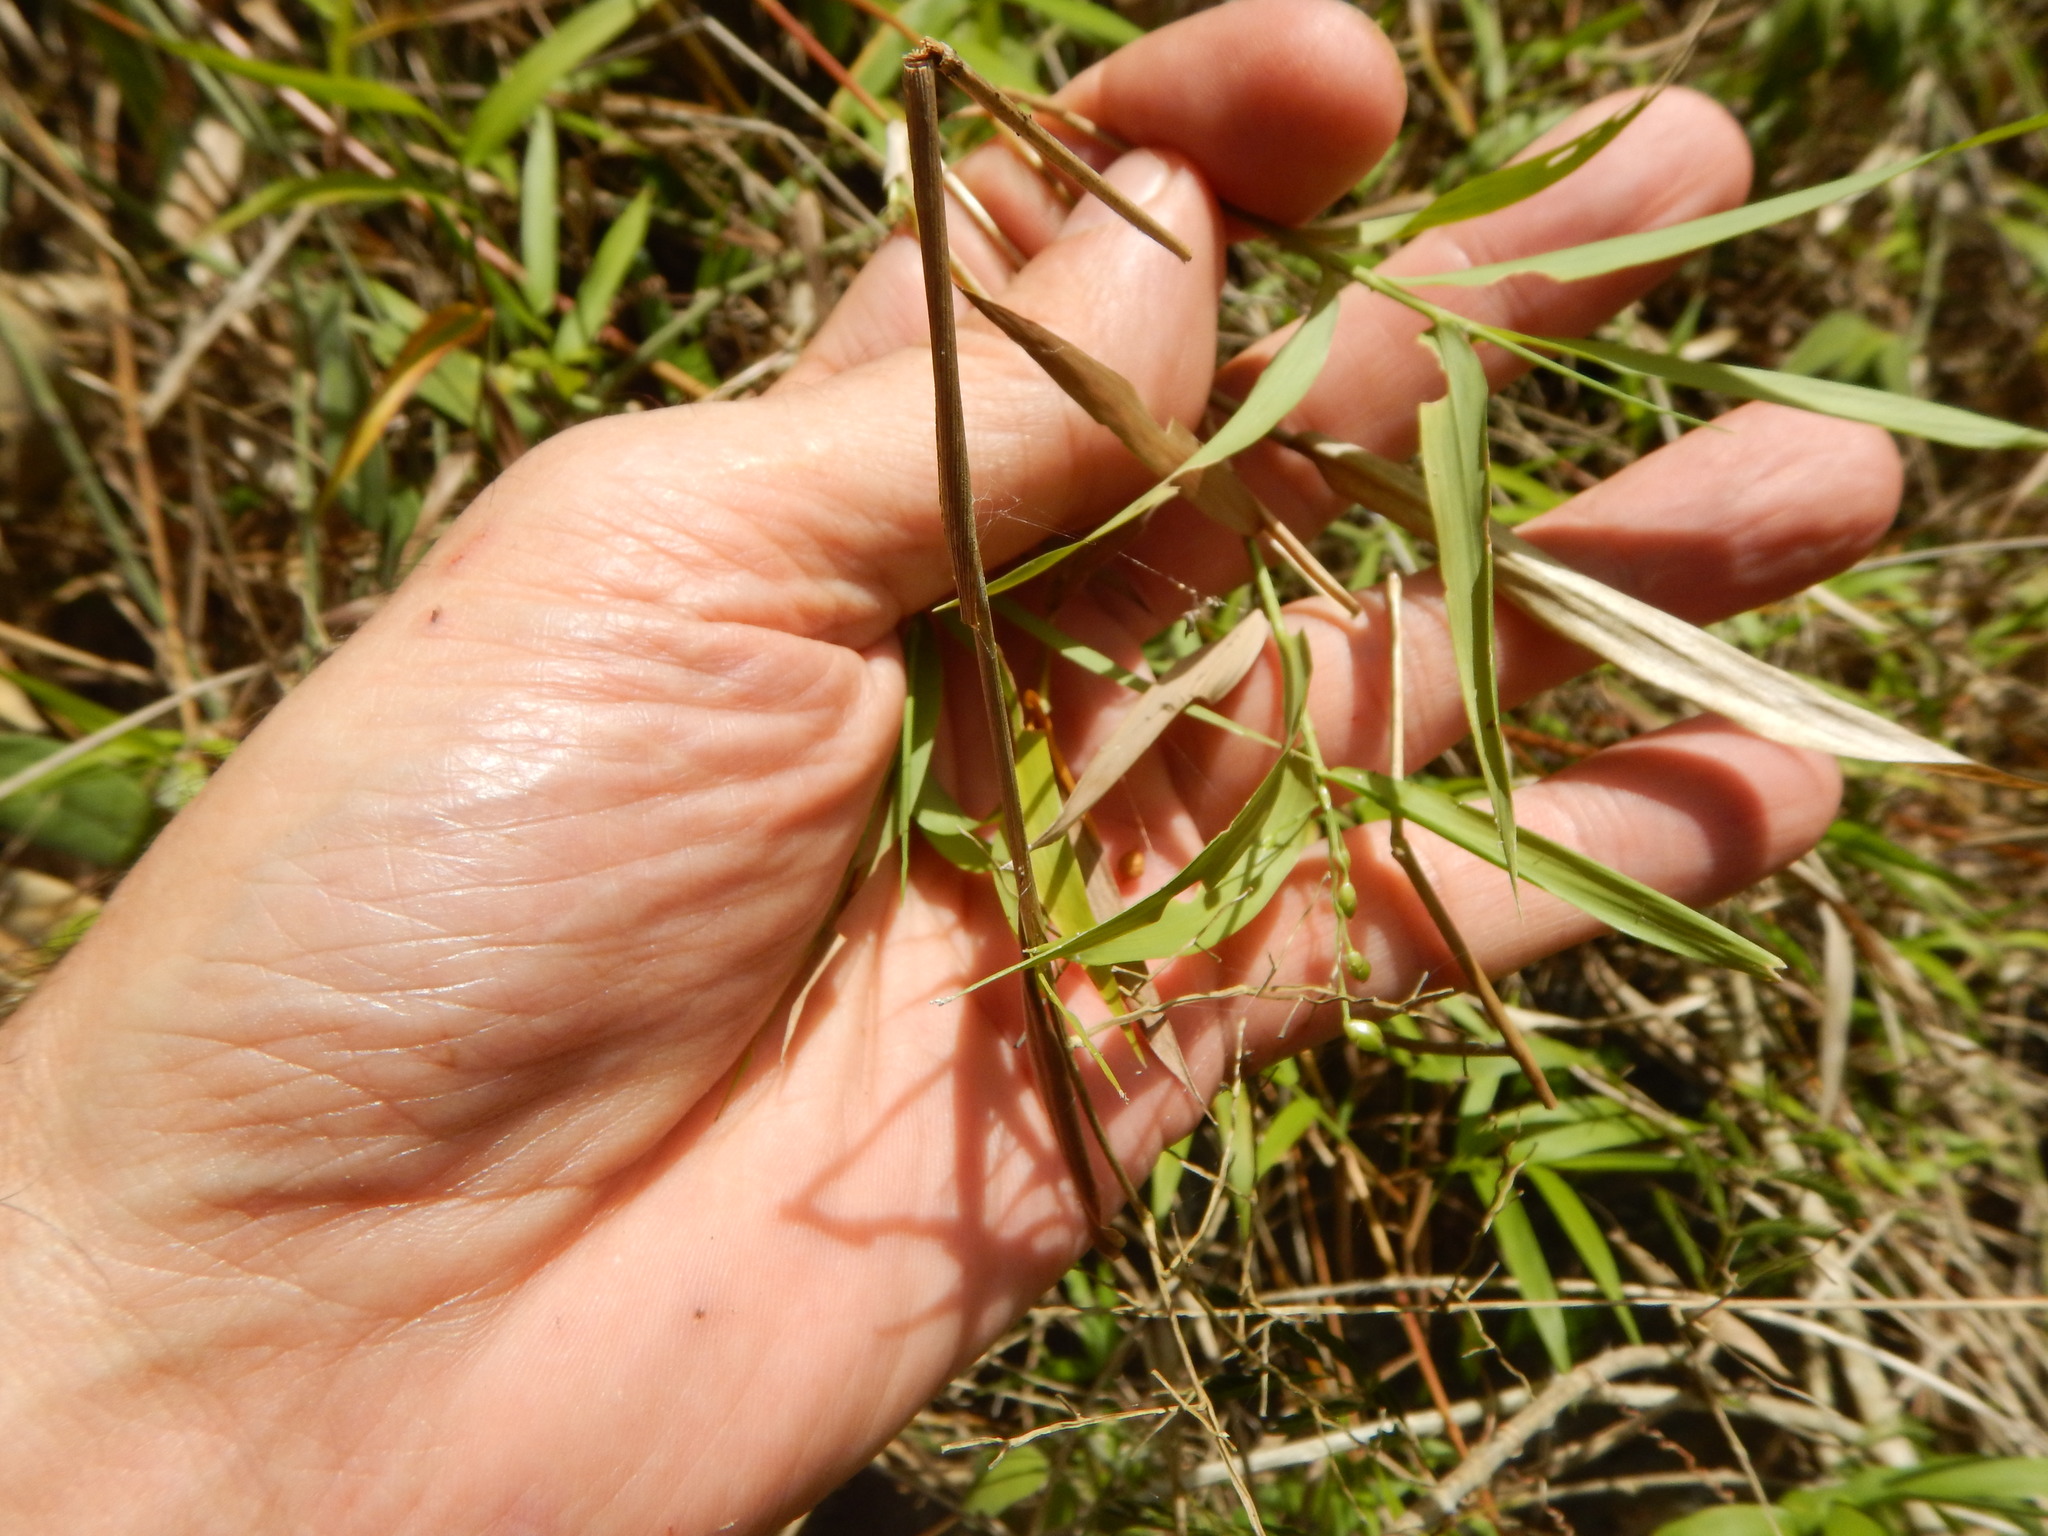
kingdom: Plantae
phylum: Tracheophyta
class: Liliopsida
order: Poales
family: Poaceae
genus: Lasiacis
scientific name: Lasiacis divaricata
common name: Smallcane
